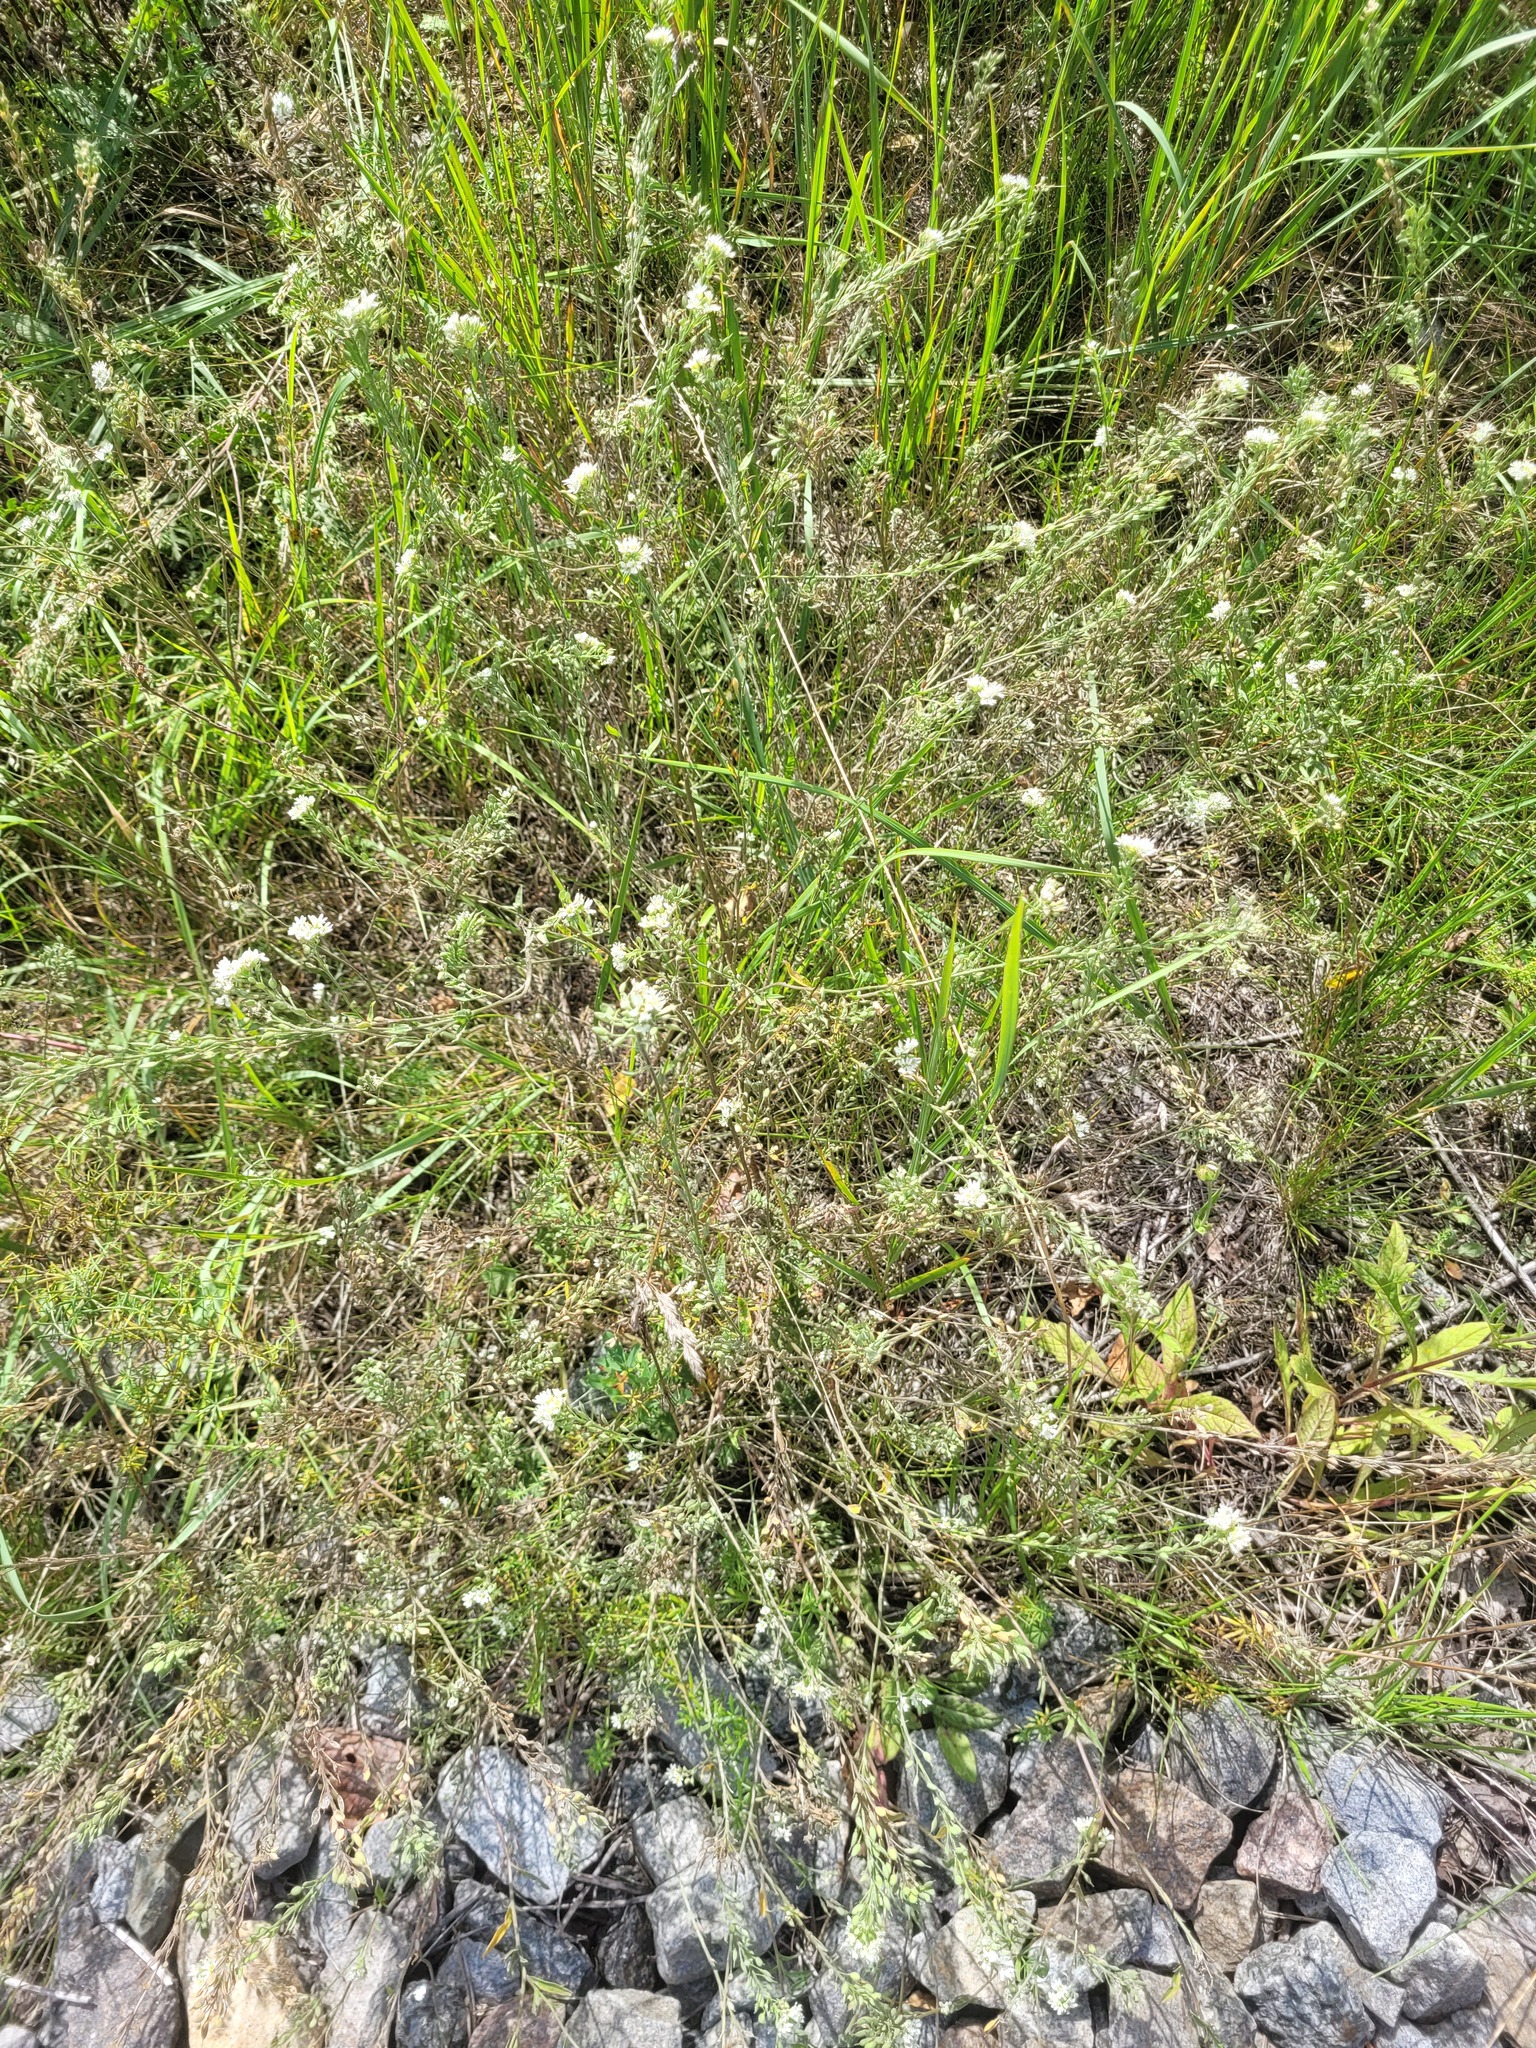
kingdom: Plantae
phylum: Tracheophyta
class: Magnoliopsida
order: Brassicales
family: Brassicaceae
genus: Berteroa
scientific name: Berteroa incana
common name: Hoary alison
